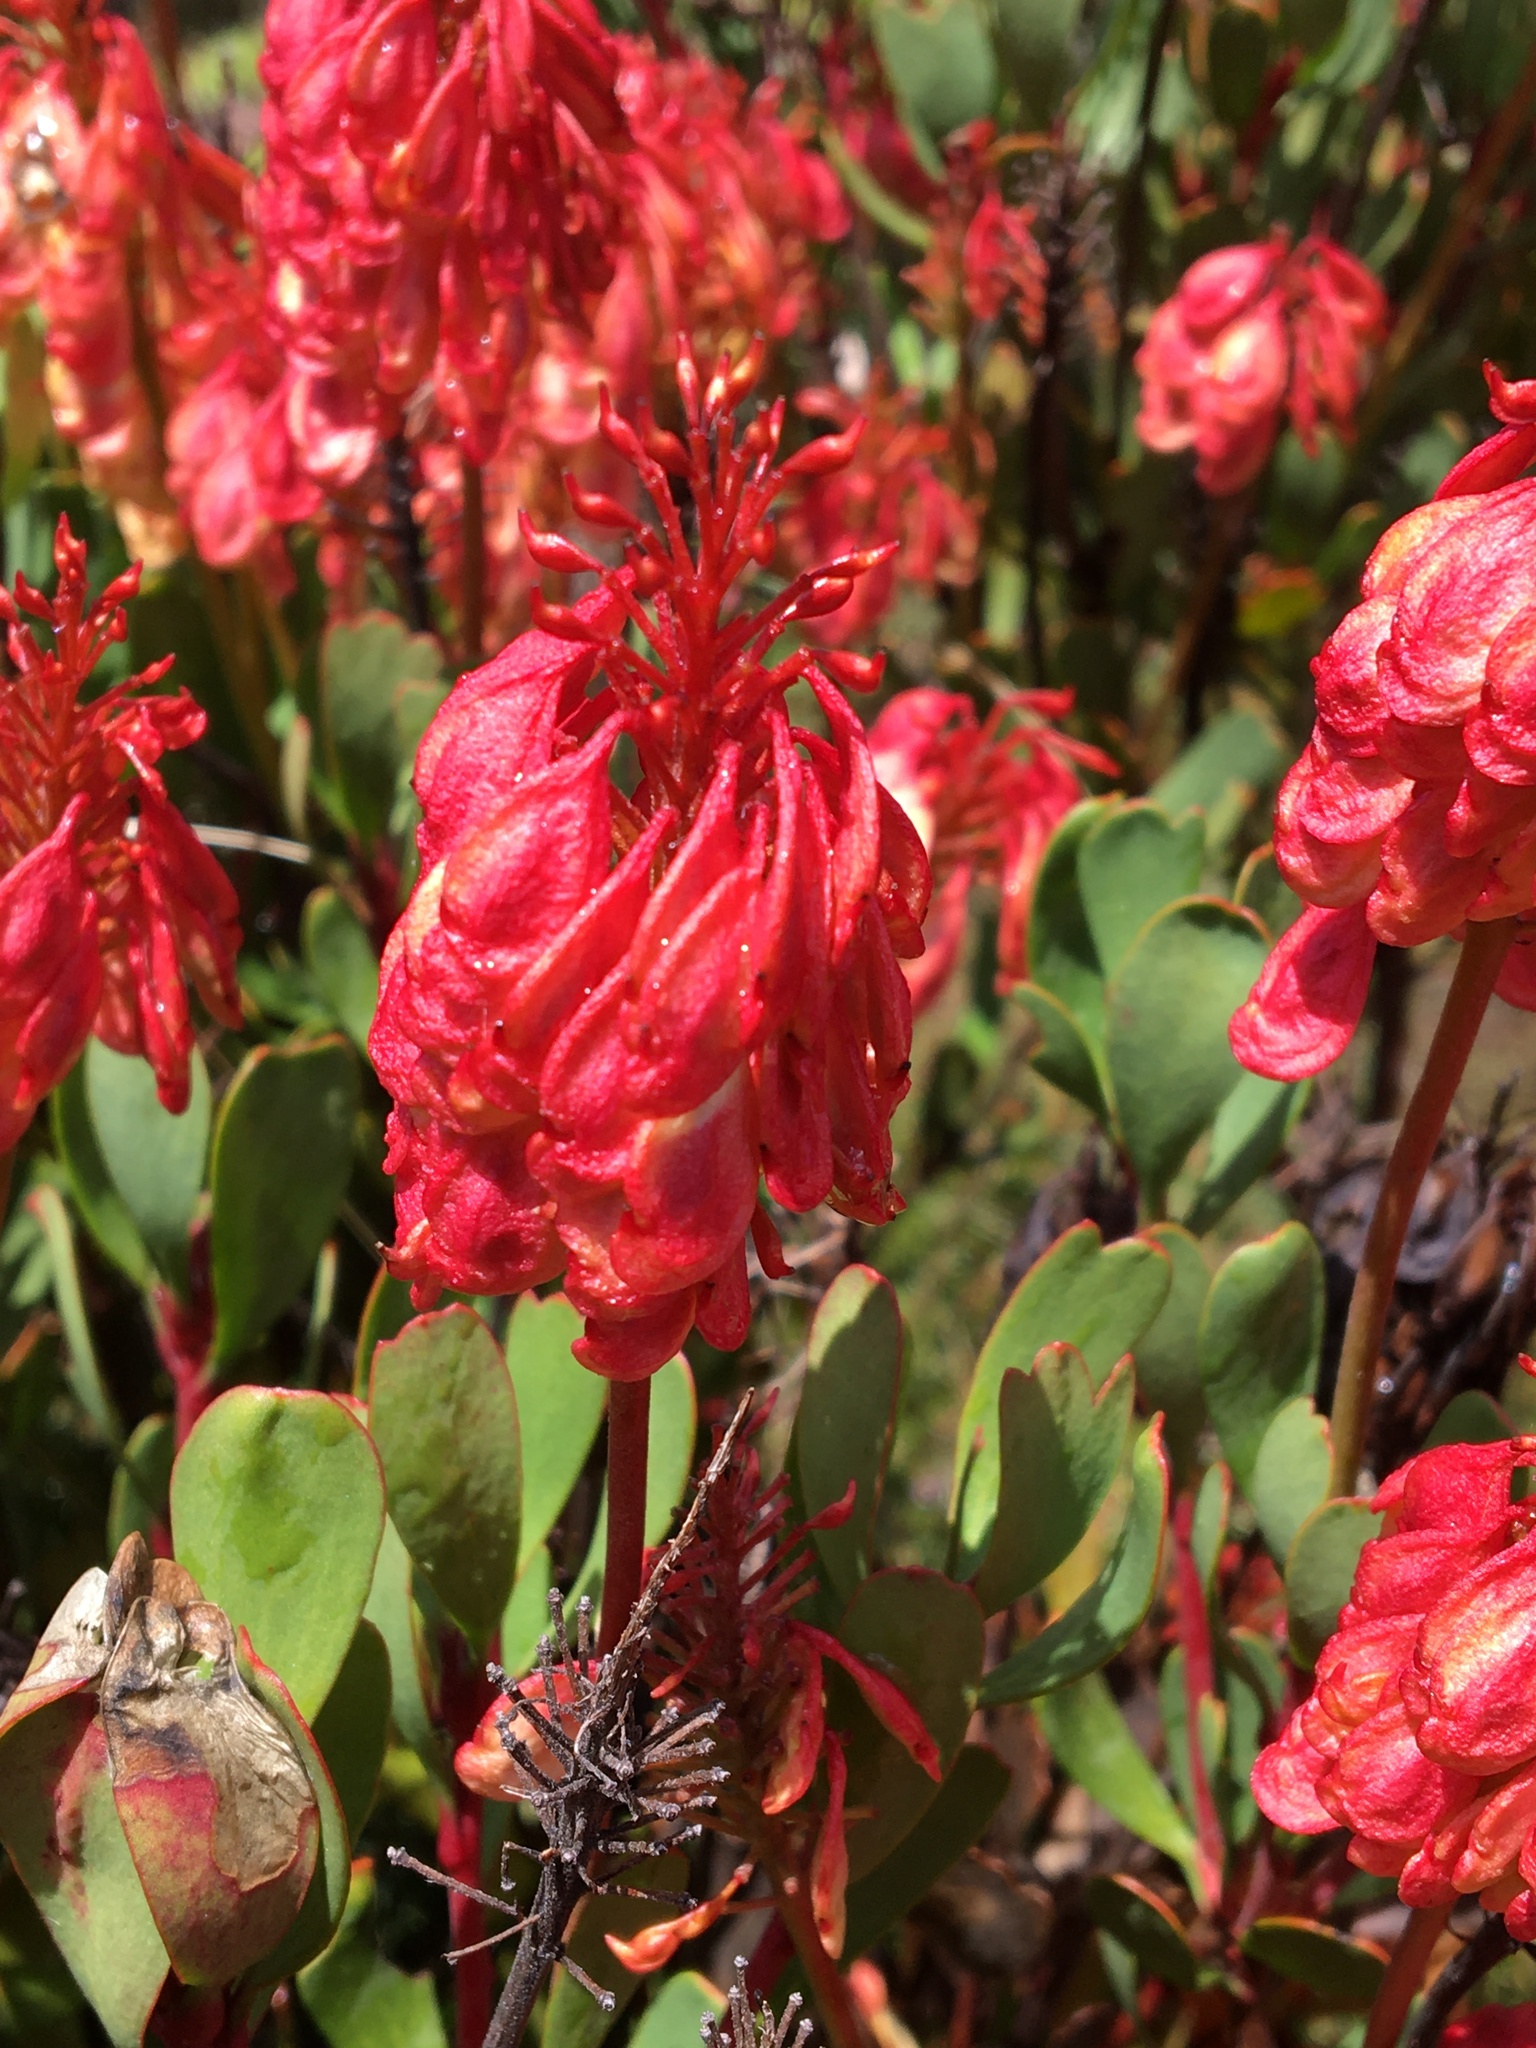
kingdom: Plantae
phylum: Tracheophyta
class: Magnoliopsida
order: Proteales
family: Proteaceae
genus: Bellendena
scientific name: Bellendena montana
